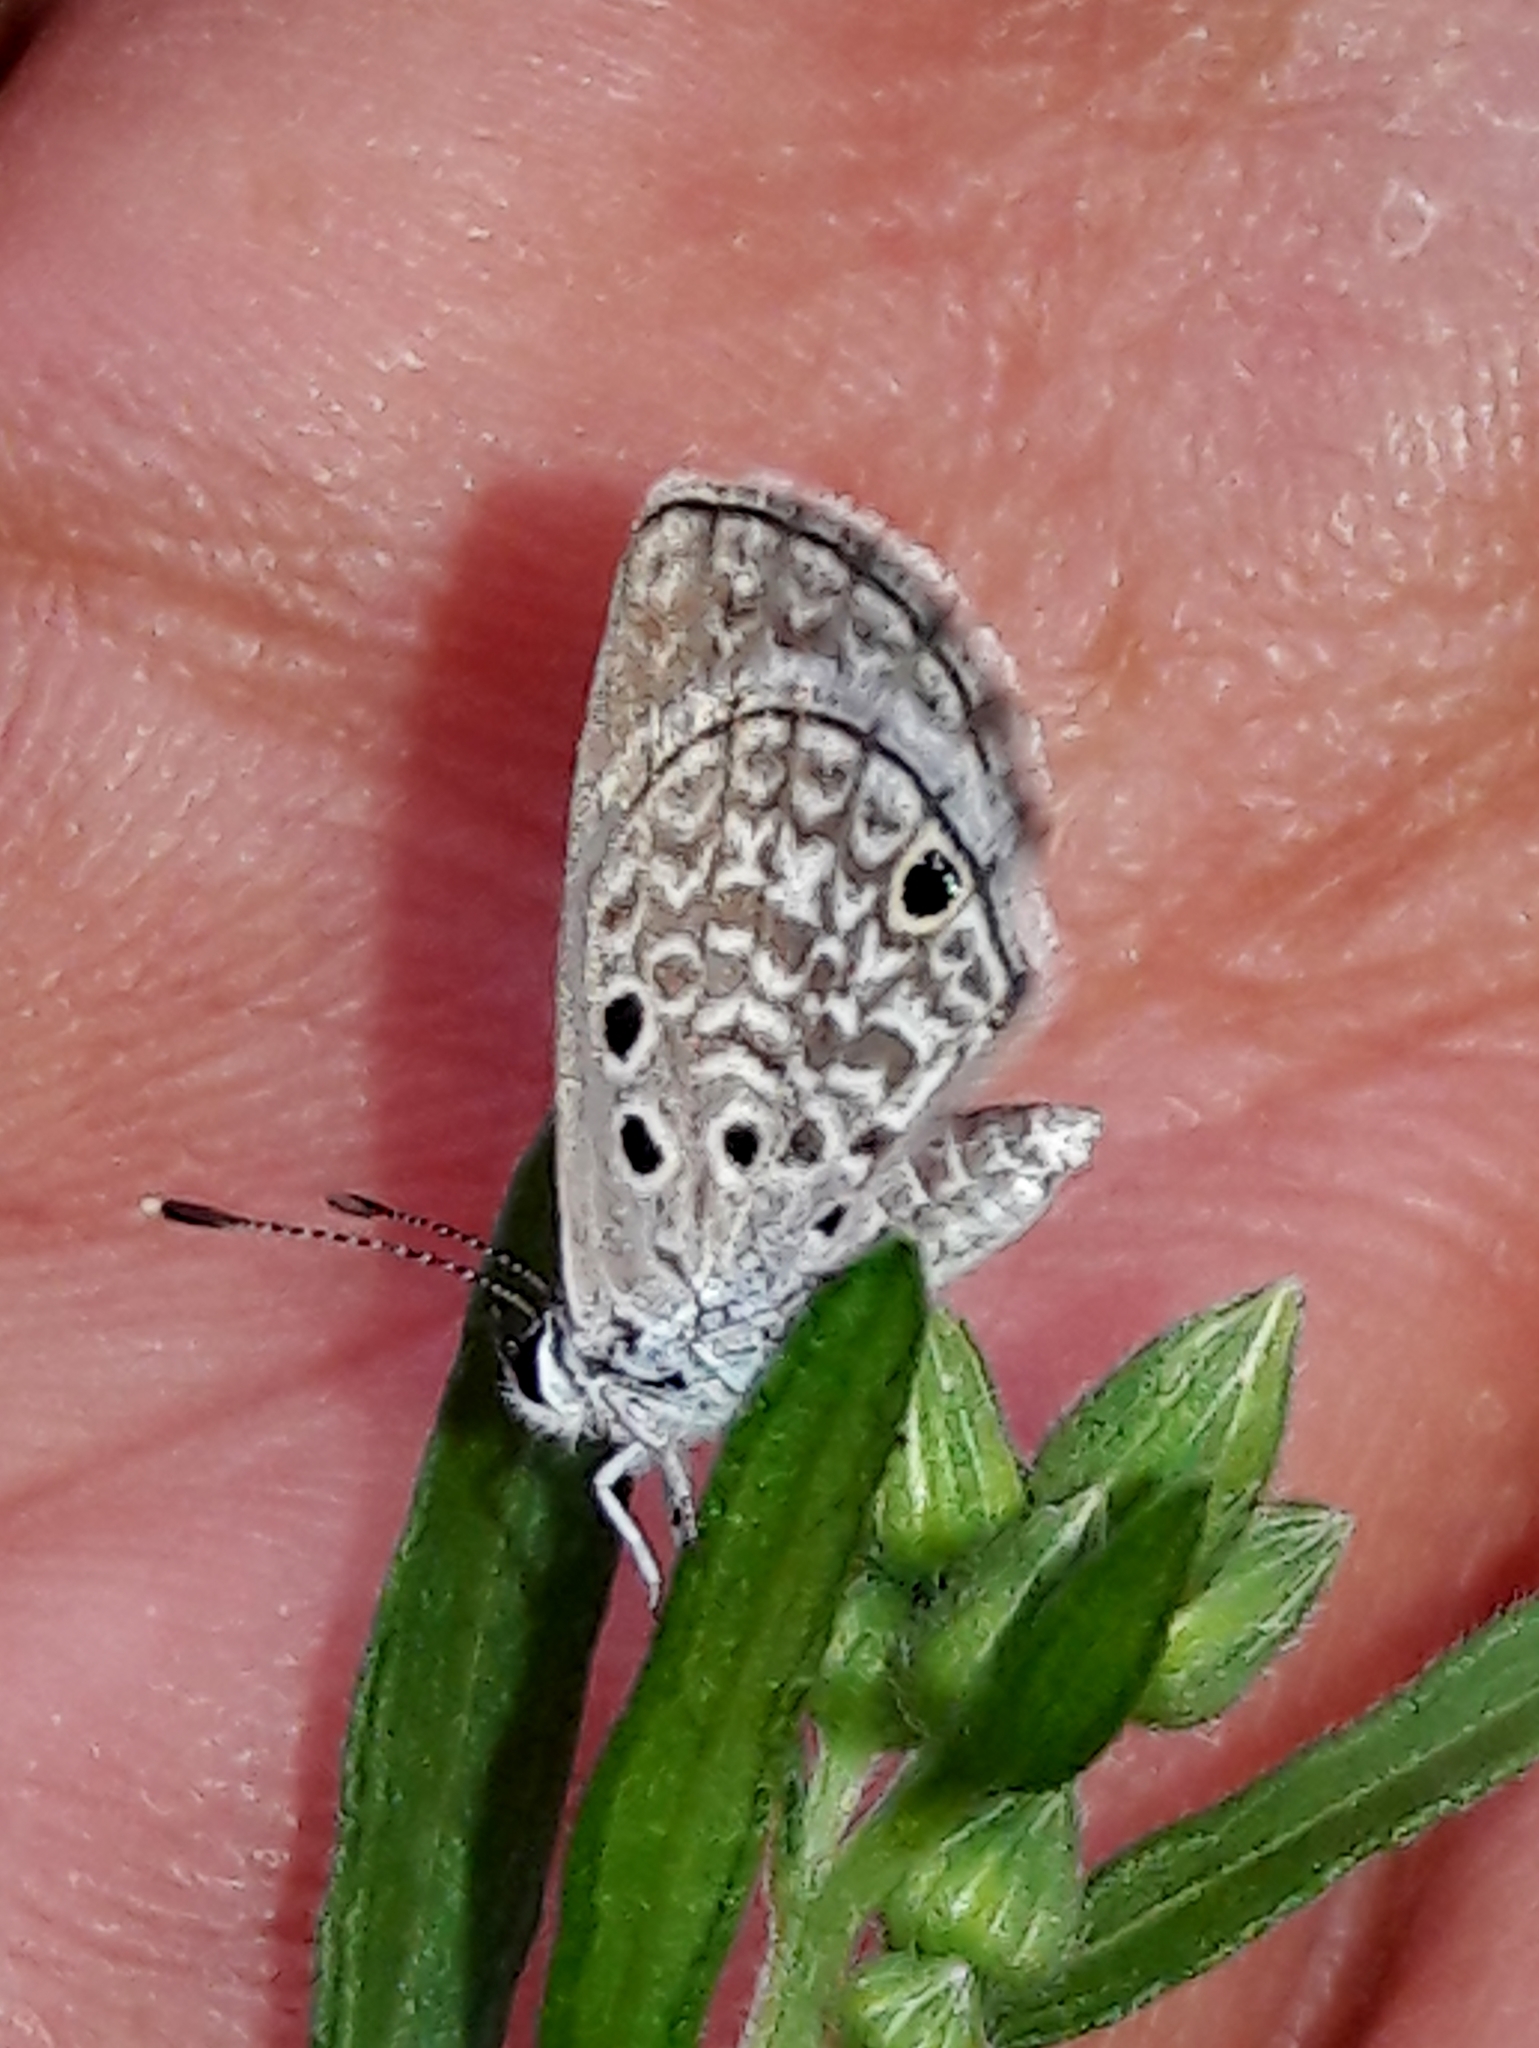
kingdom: Animalia
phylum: Arthropoda
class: Insecta
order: Lepidoptera
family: Lycaenidae
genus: Hemiargus
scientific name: Hemiargus hanno
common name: Common blue
